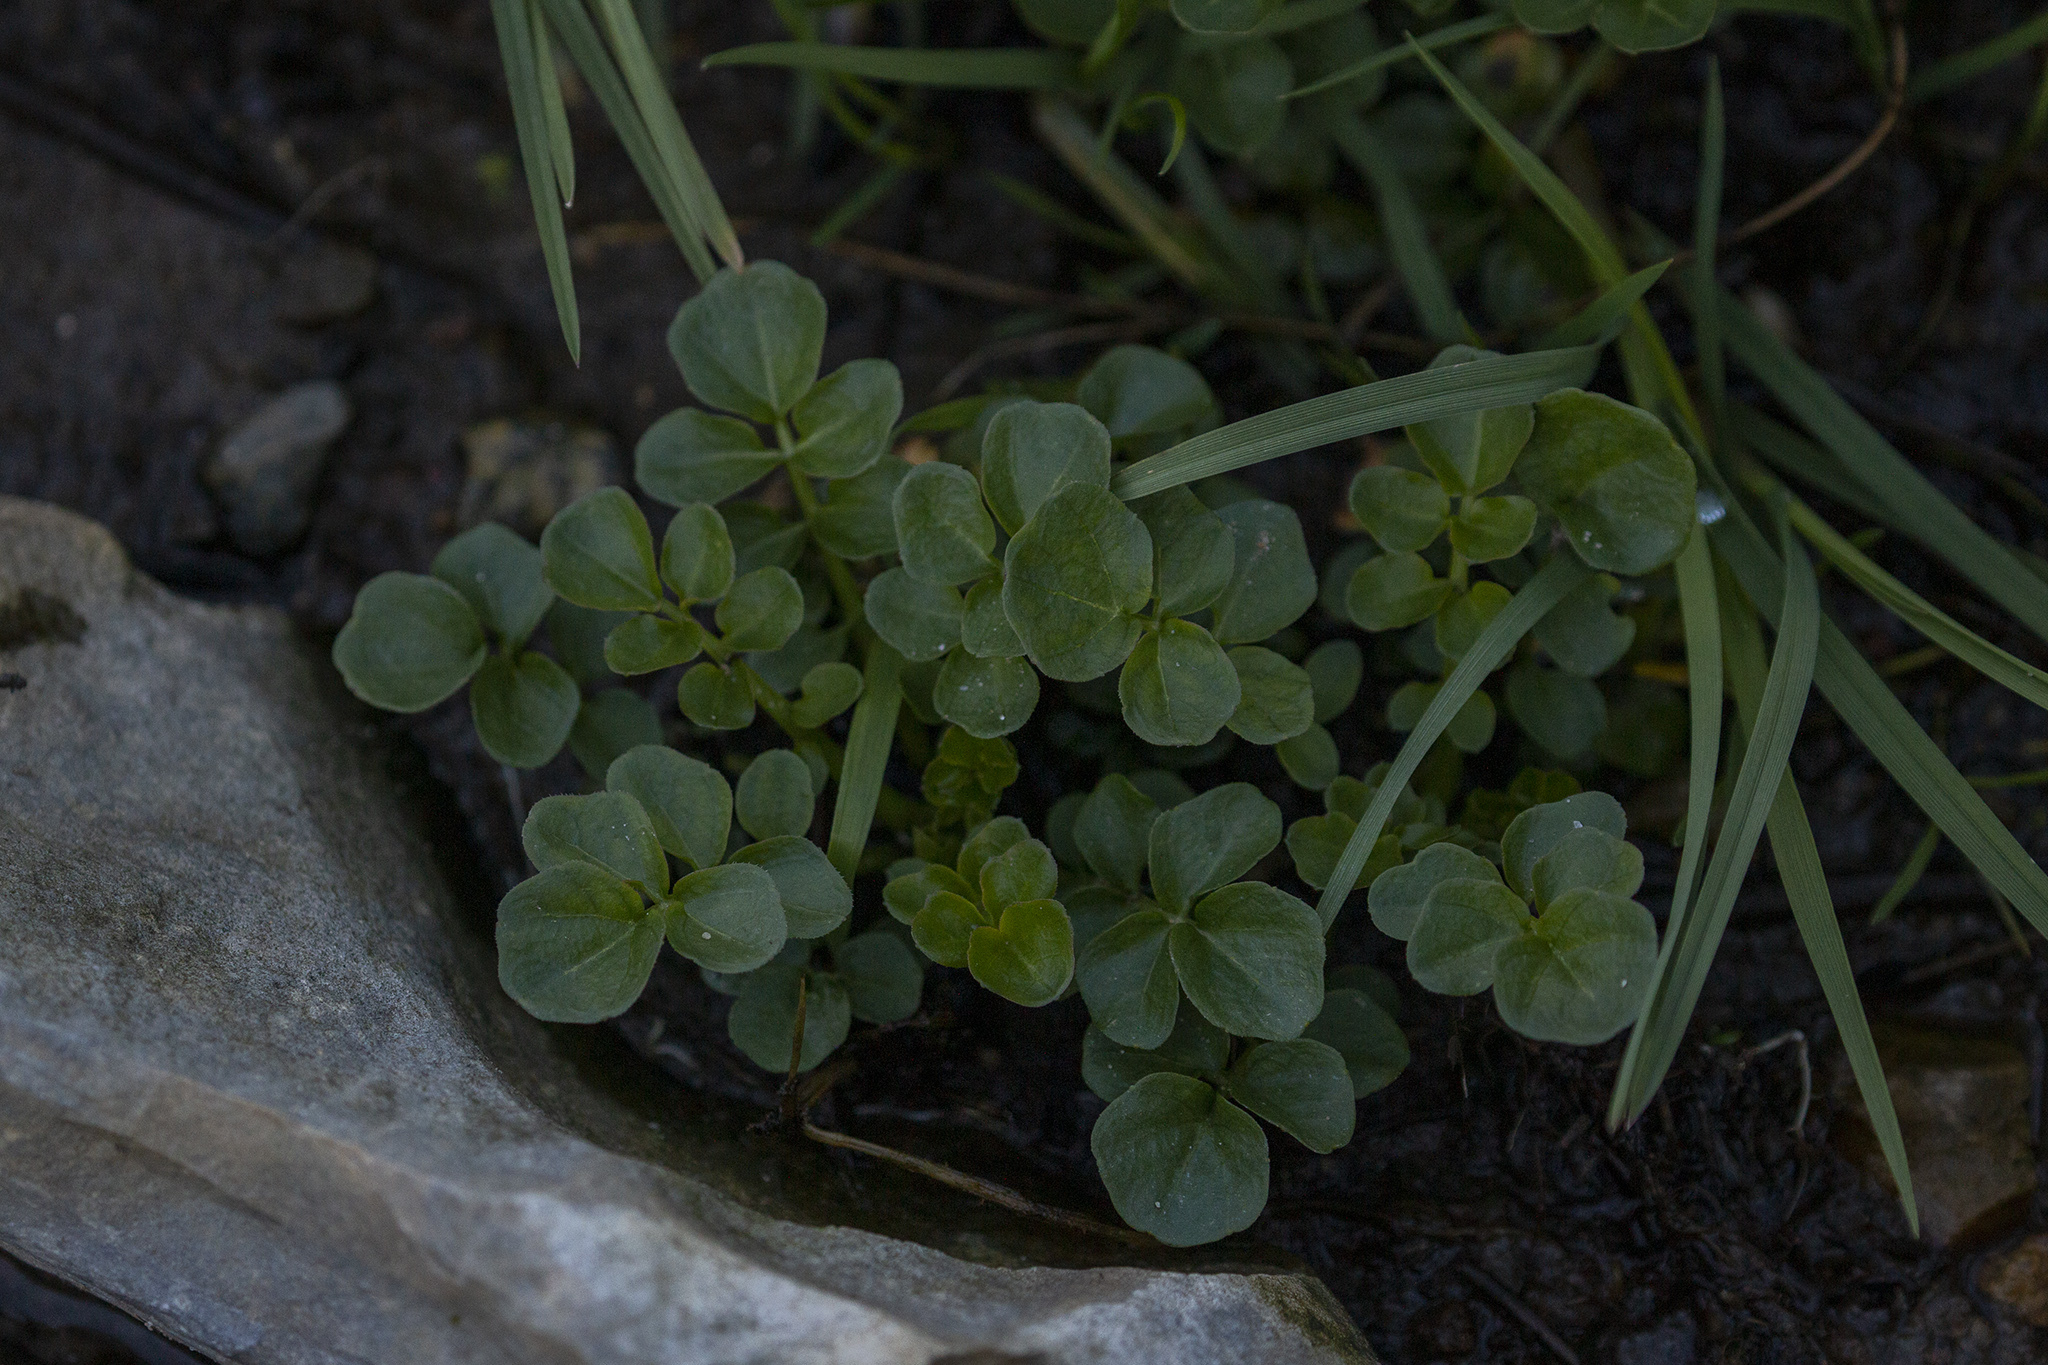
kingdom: Plantae
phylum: Tracheophyta
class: Magnoliopsida
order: Ranunculales
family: Ranunculaceae
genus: Anemone
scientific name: Anemone nemorosa
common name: Wood anemone
